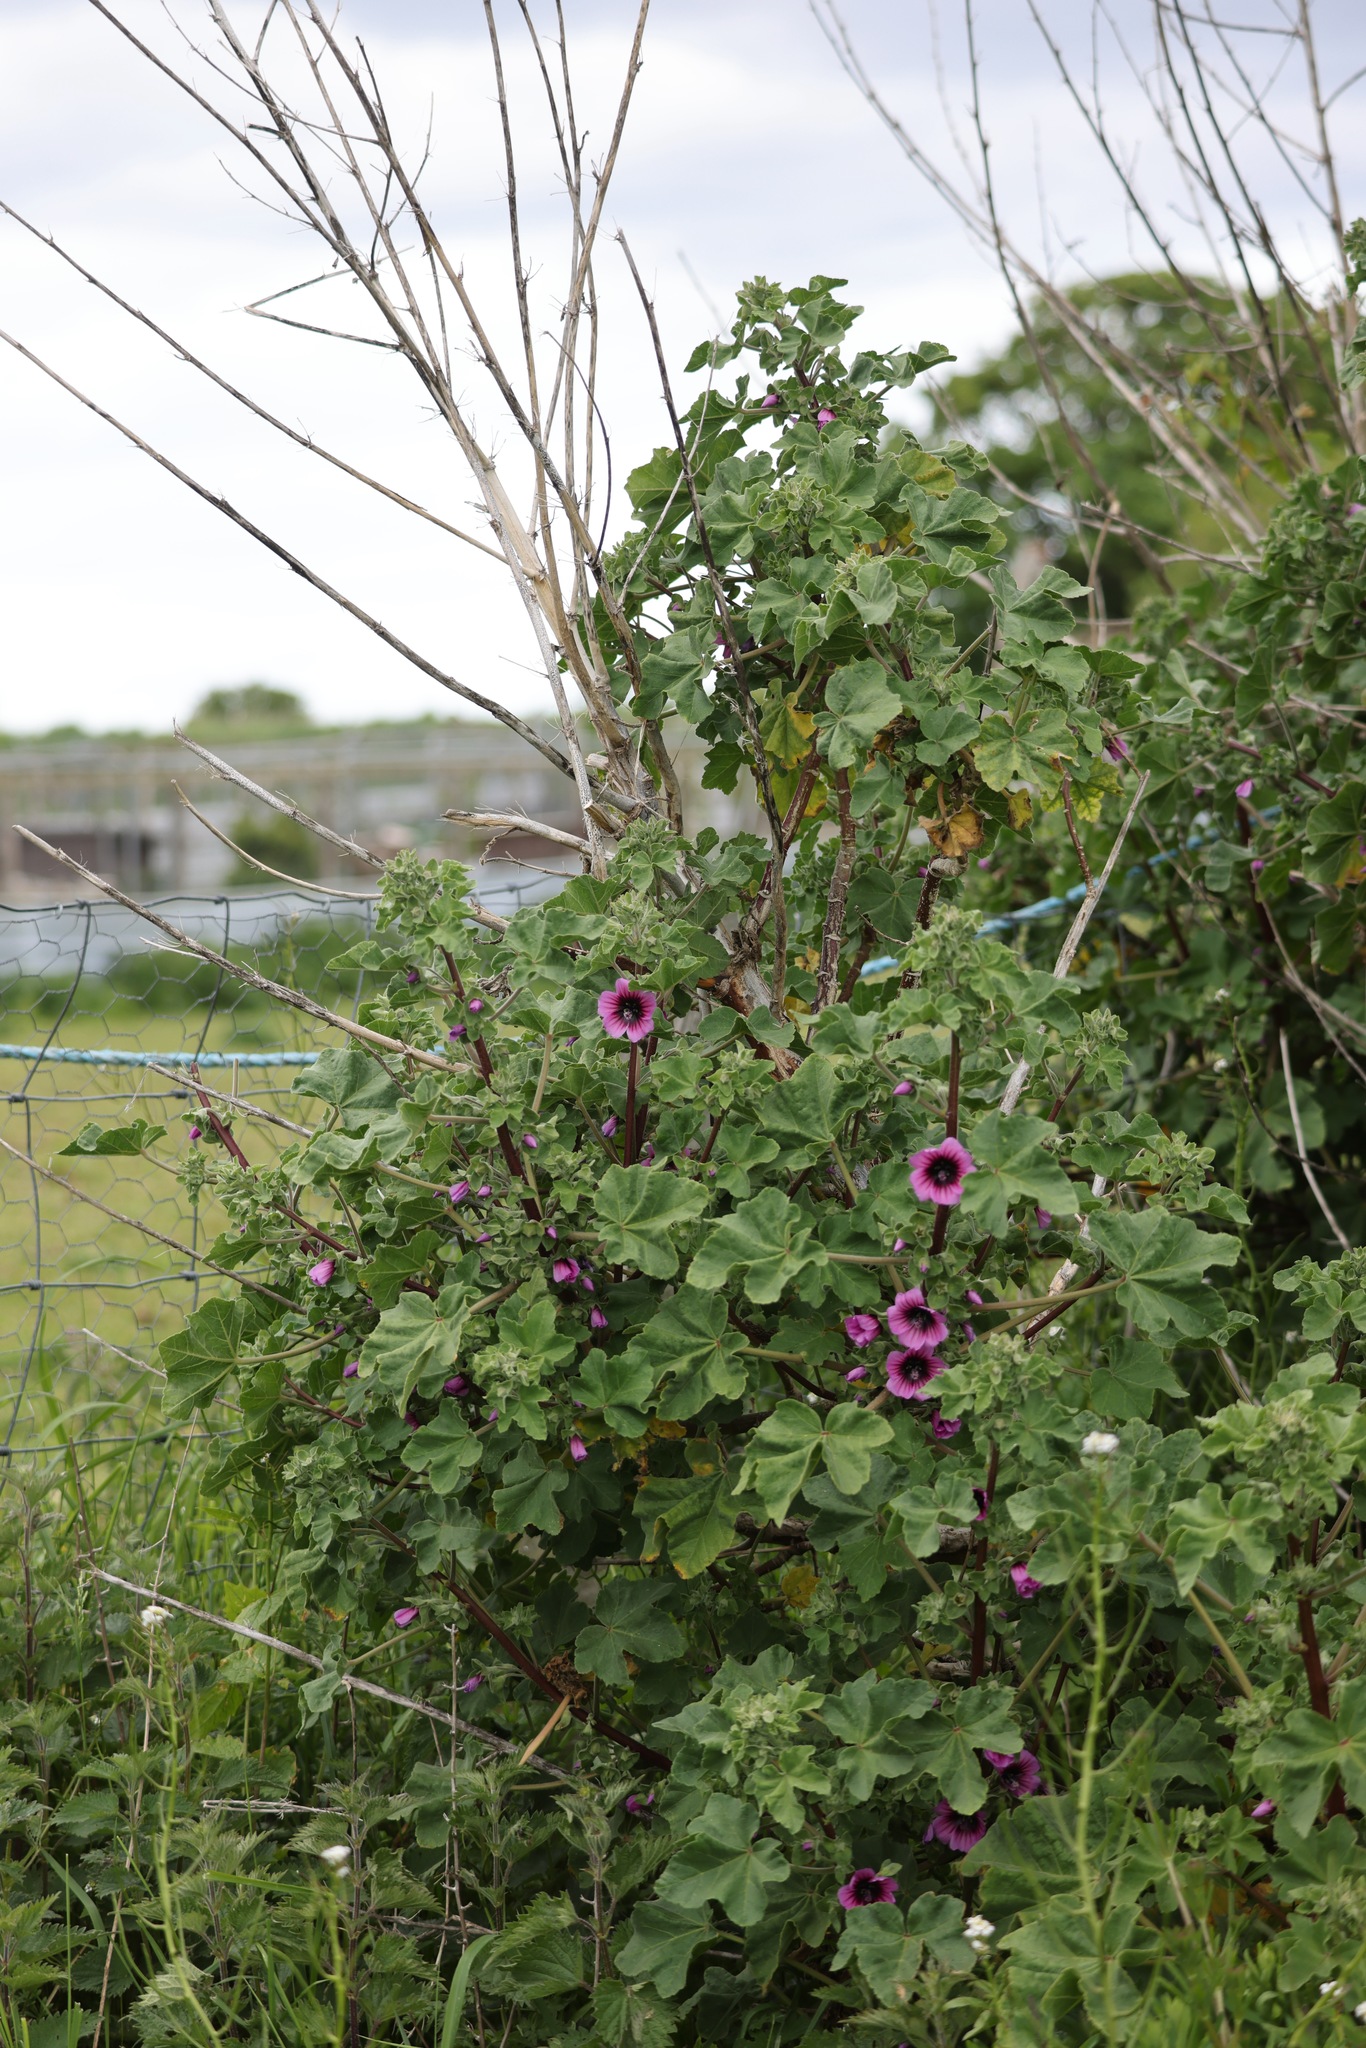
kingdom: Plantae
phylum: Tracheophyta
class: Magnoliopsida
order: Malvales
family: Malvaceae
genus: Malva
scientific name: Malva arborea
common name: Tree mallow
